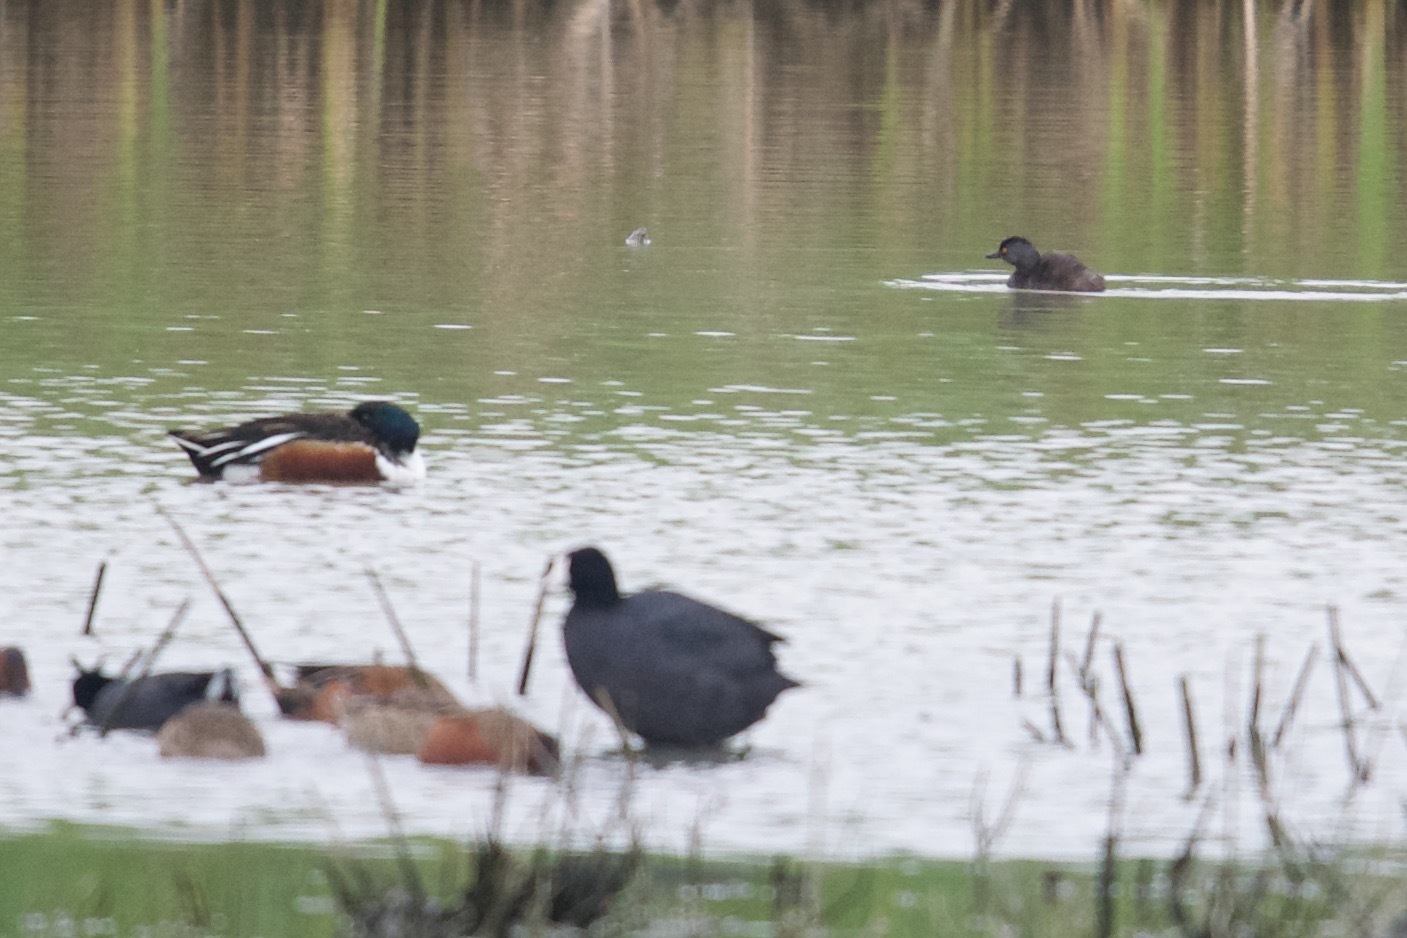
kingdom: Animalia
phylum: Chordata
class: Aves
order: Podicipediformes
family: Podicipedidae
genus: Tachybaptus
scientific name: Tachybaptus dominicus
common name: Least grebe
